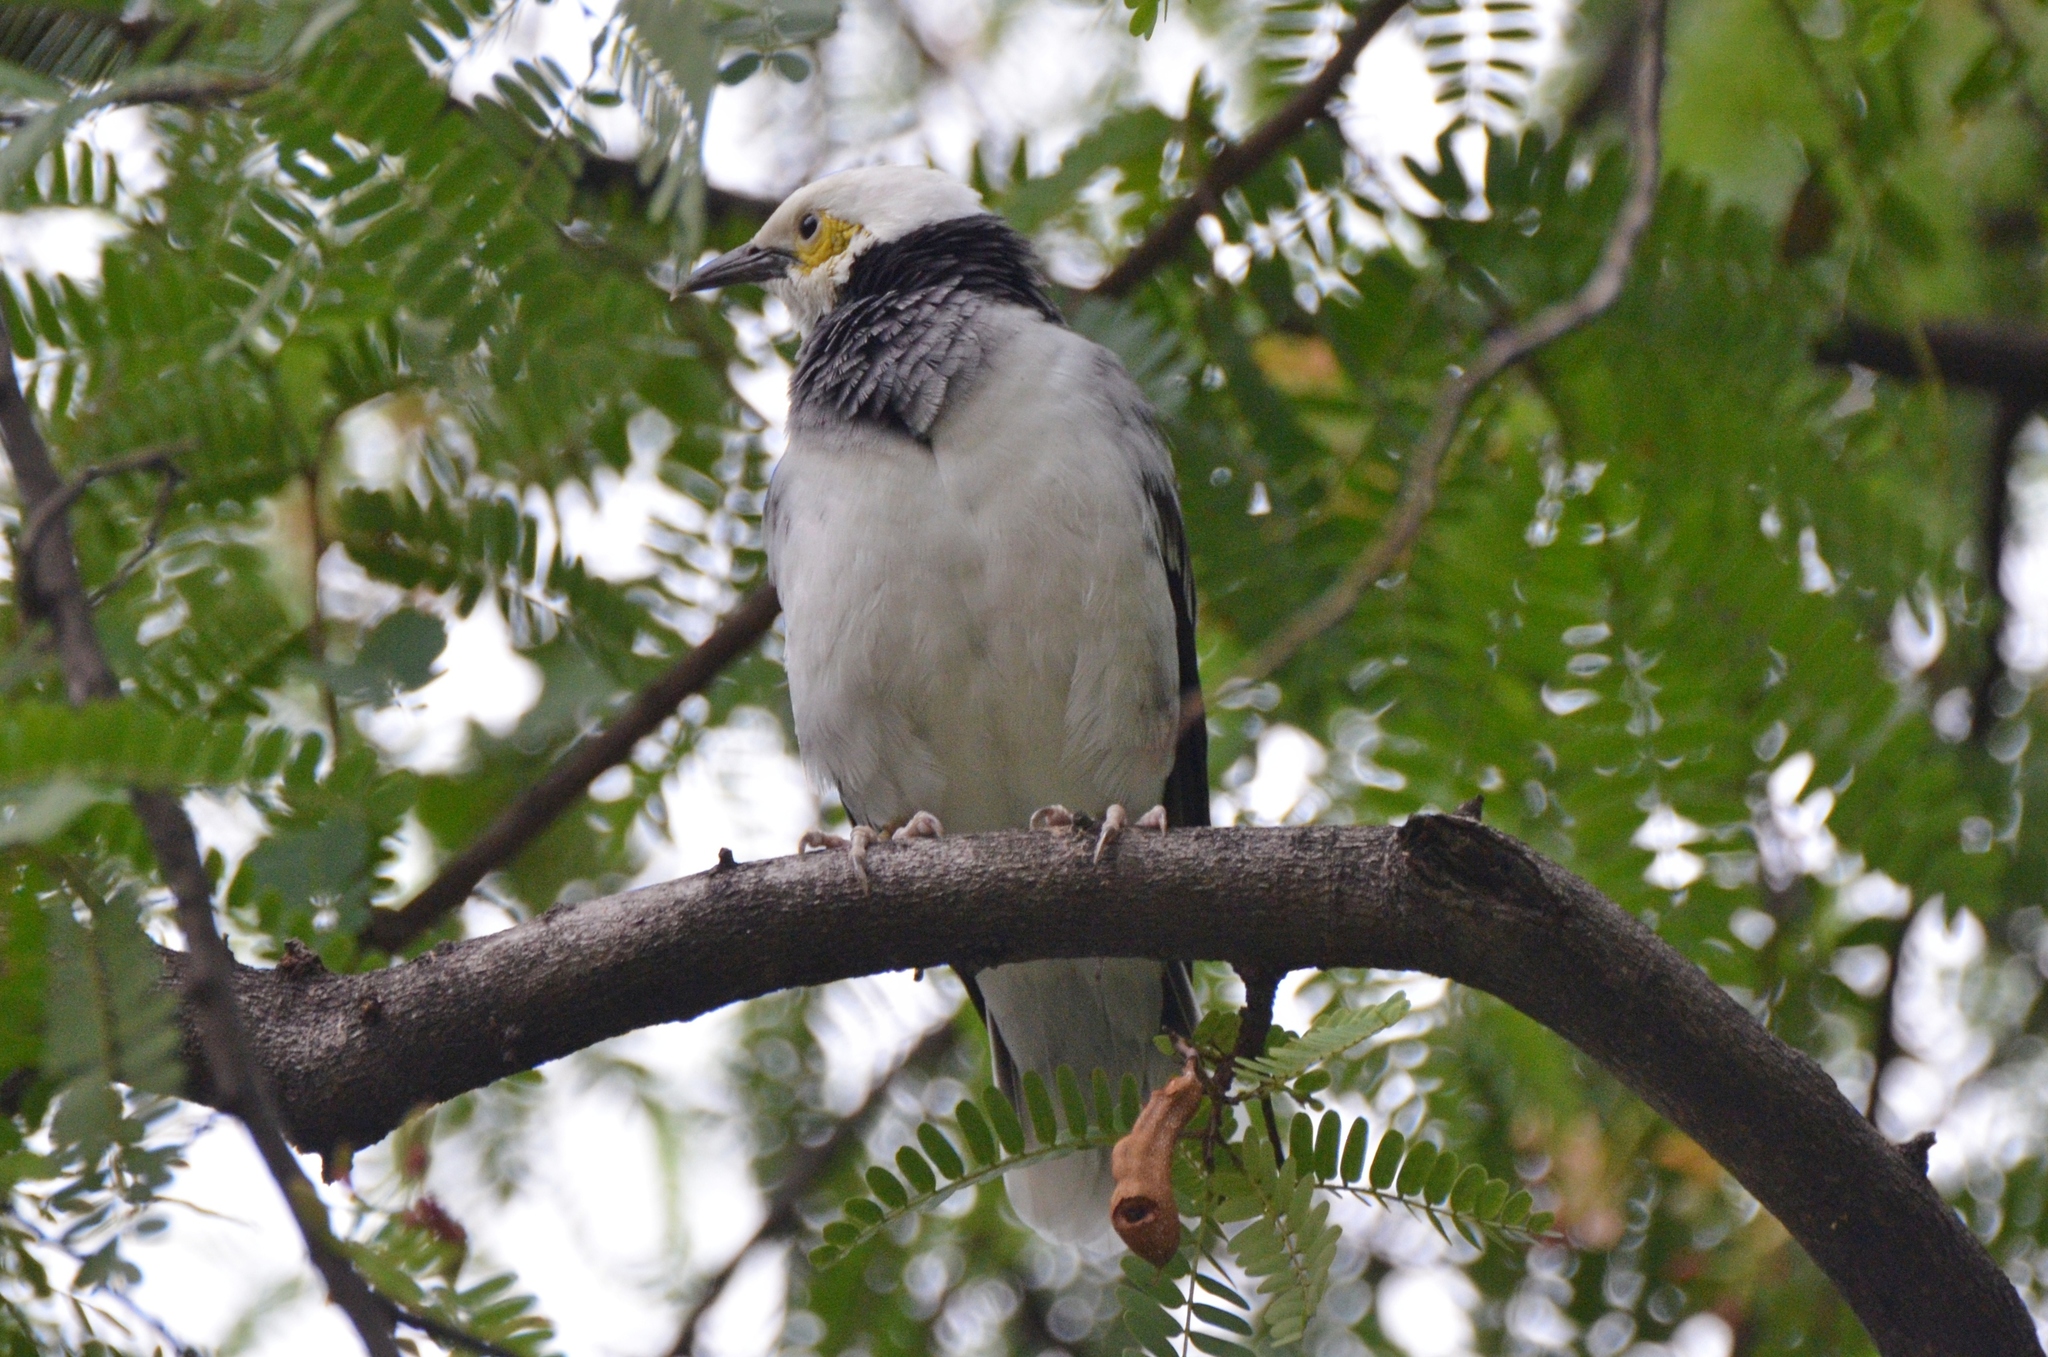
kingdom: Animalia
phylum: Chordata
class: Aves
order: Passeriformes
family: Sturnidae
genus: Gracupica
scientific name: Gracupica nigricollis
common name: Black-collared starling
